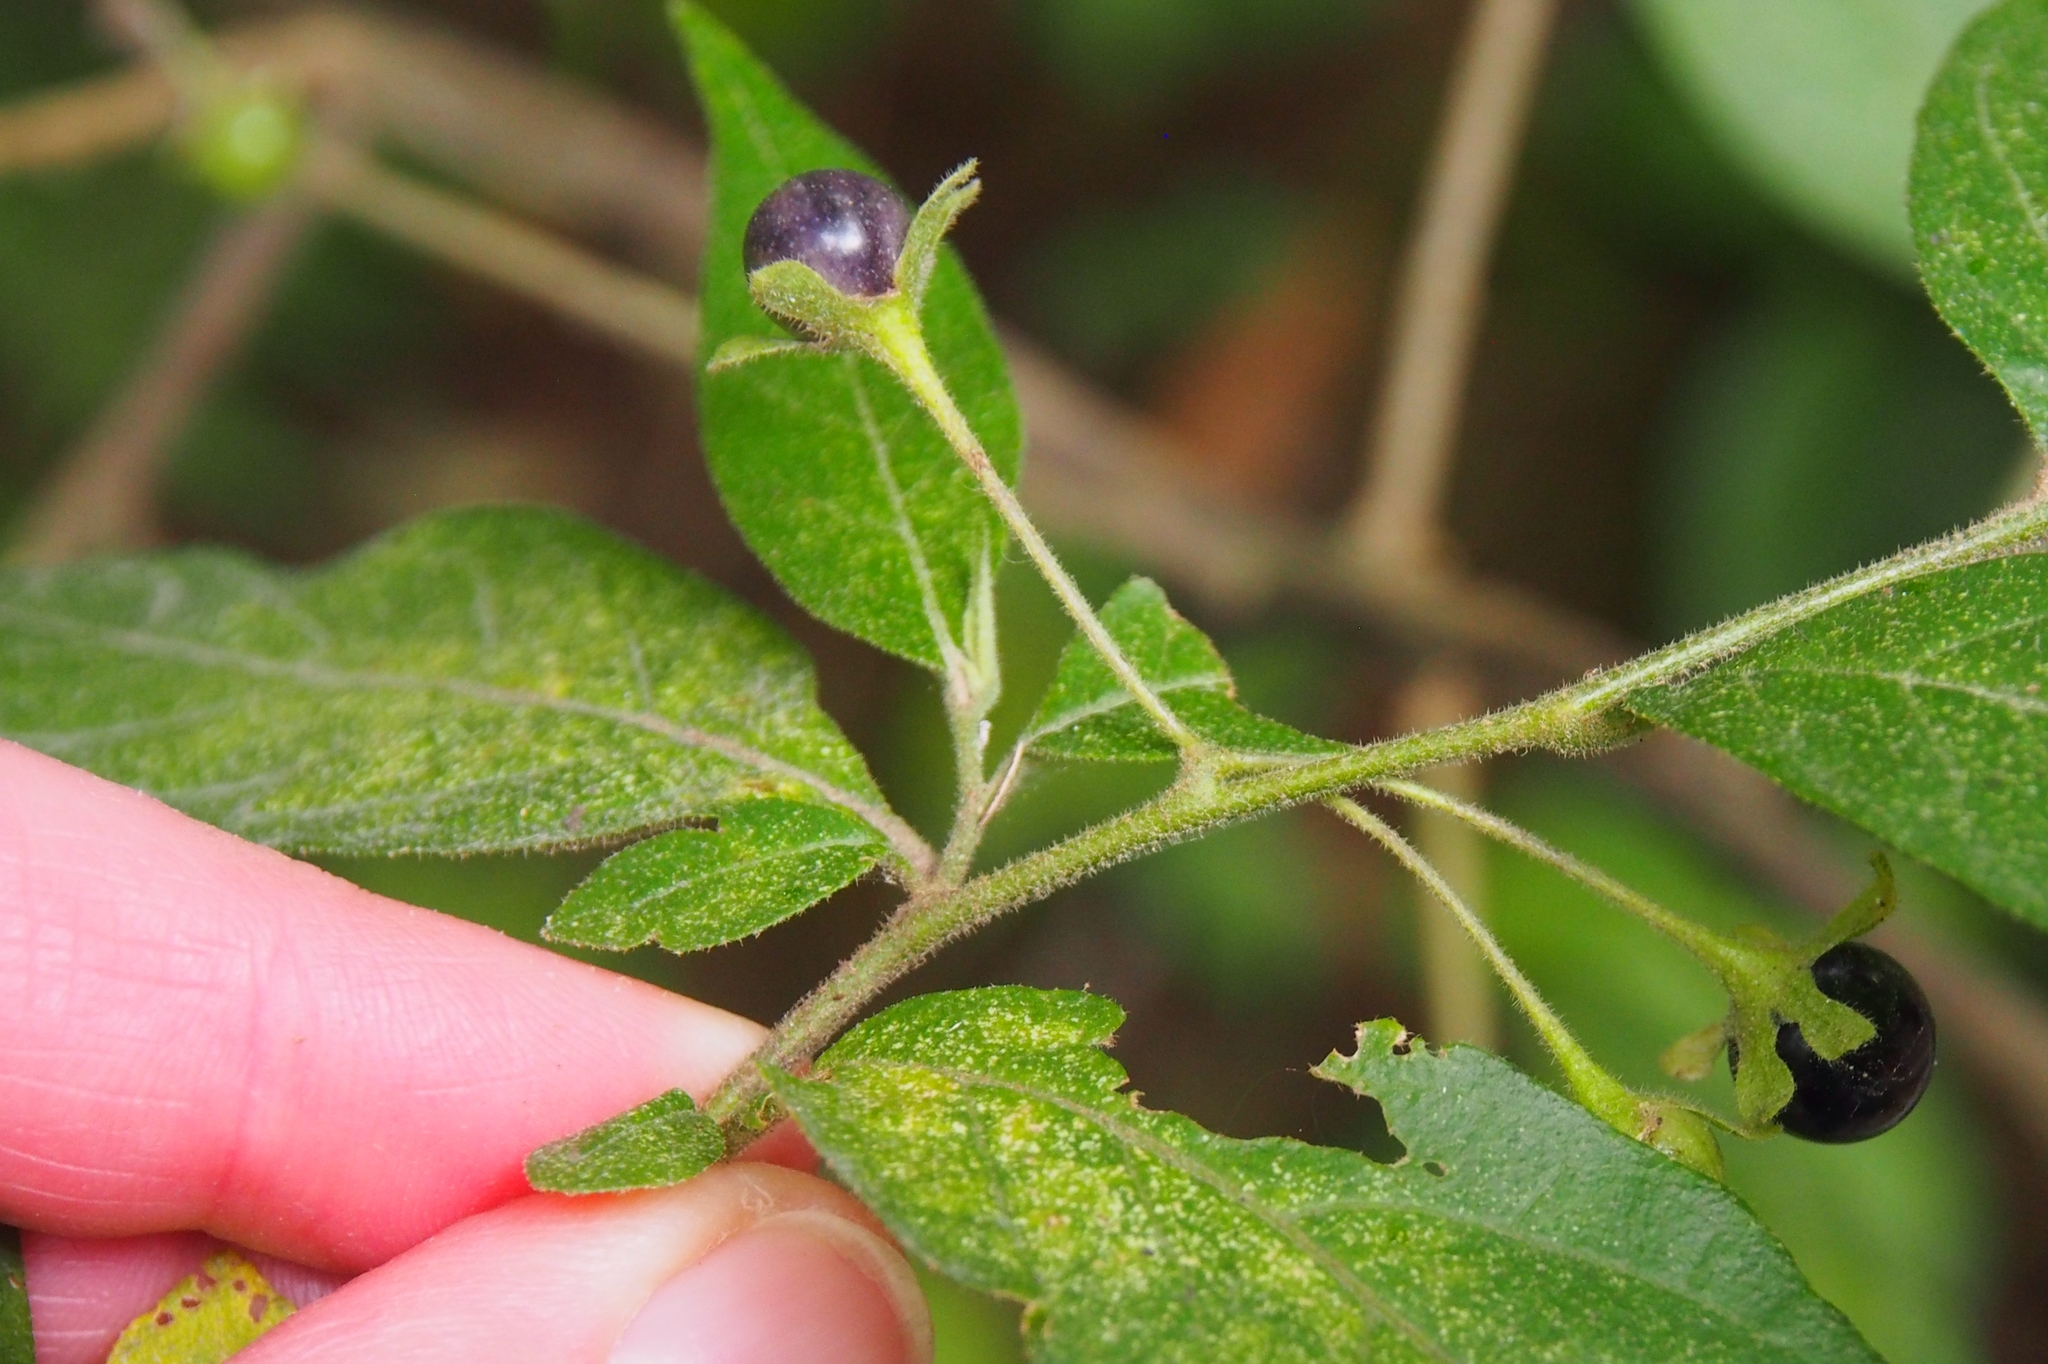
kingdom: Plantae
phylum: Tracheophyta
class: Magnoliopsida
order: Solanales
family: Solanaceae
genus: Solanum
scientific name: Solanum cordovense
